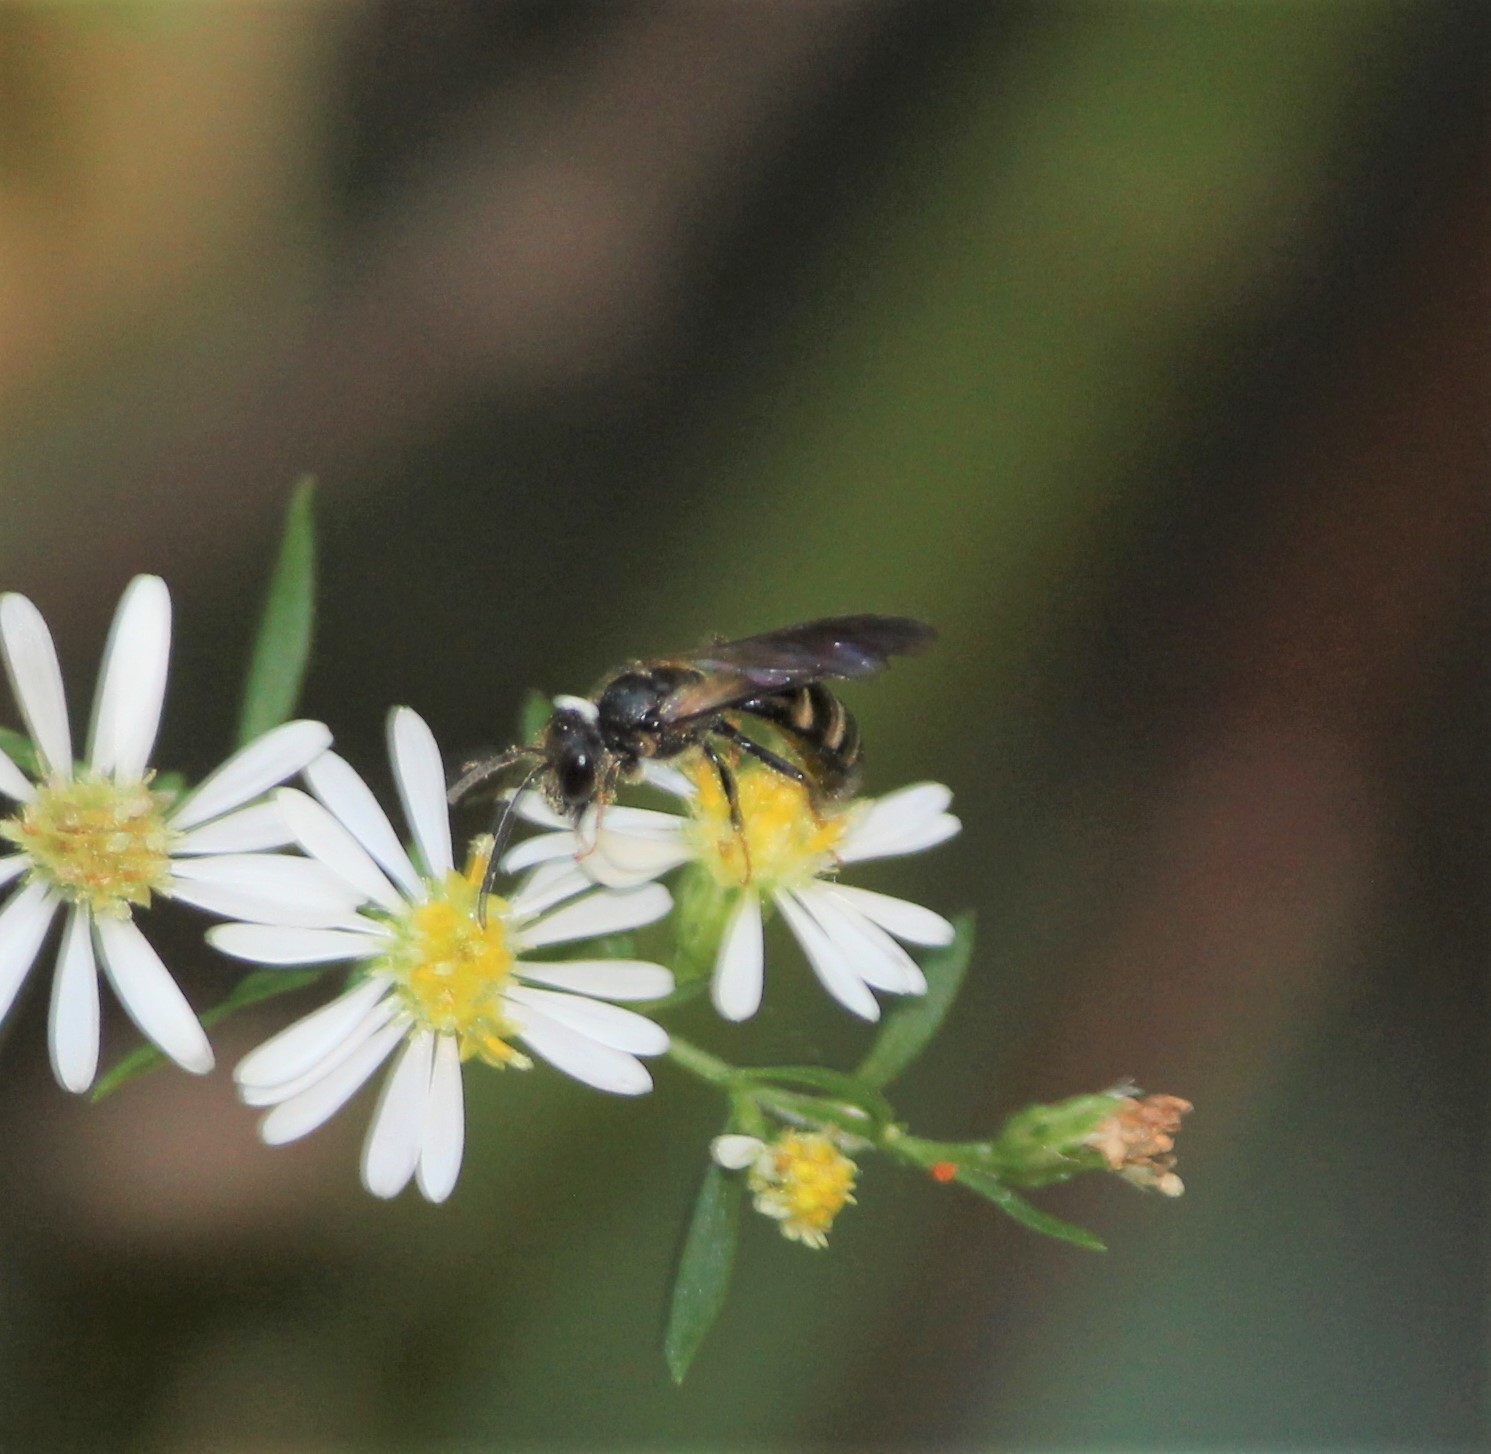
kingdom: Animalia
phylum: Arthropoda
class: Insecta
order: Hymenoptera
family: Halictidae
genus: Lasioglossum
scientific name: Lasioglossum fuscipenne
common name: Brown-winged sweat bee
